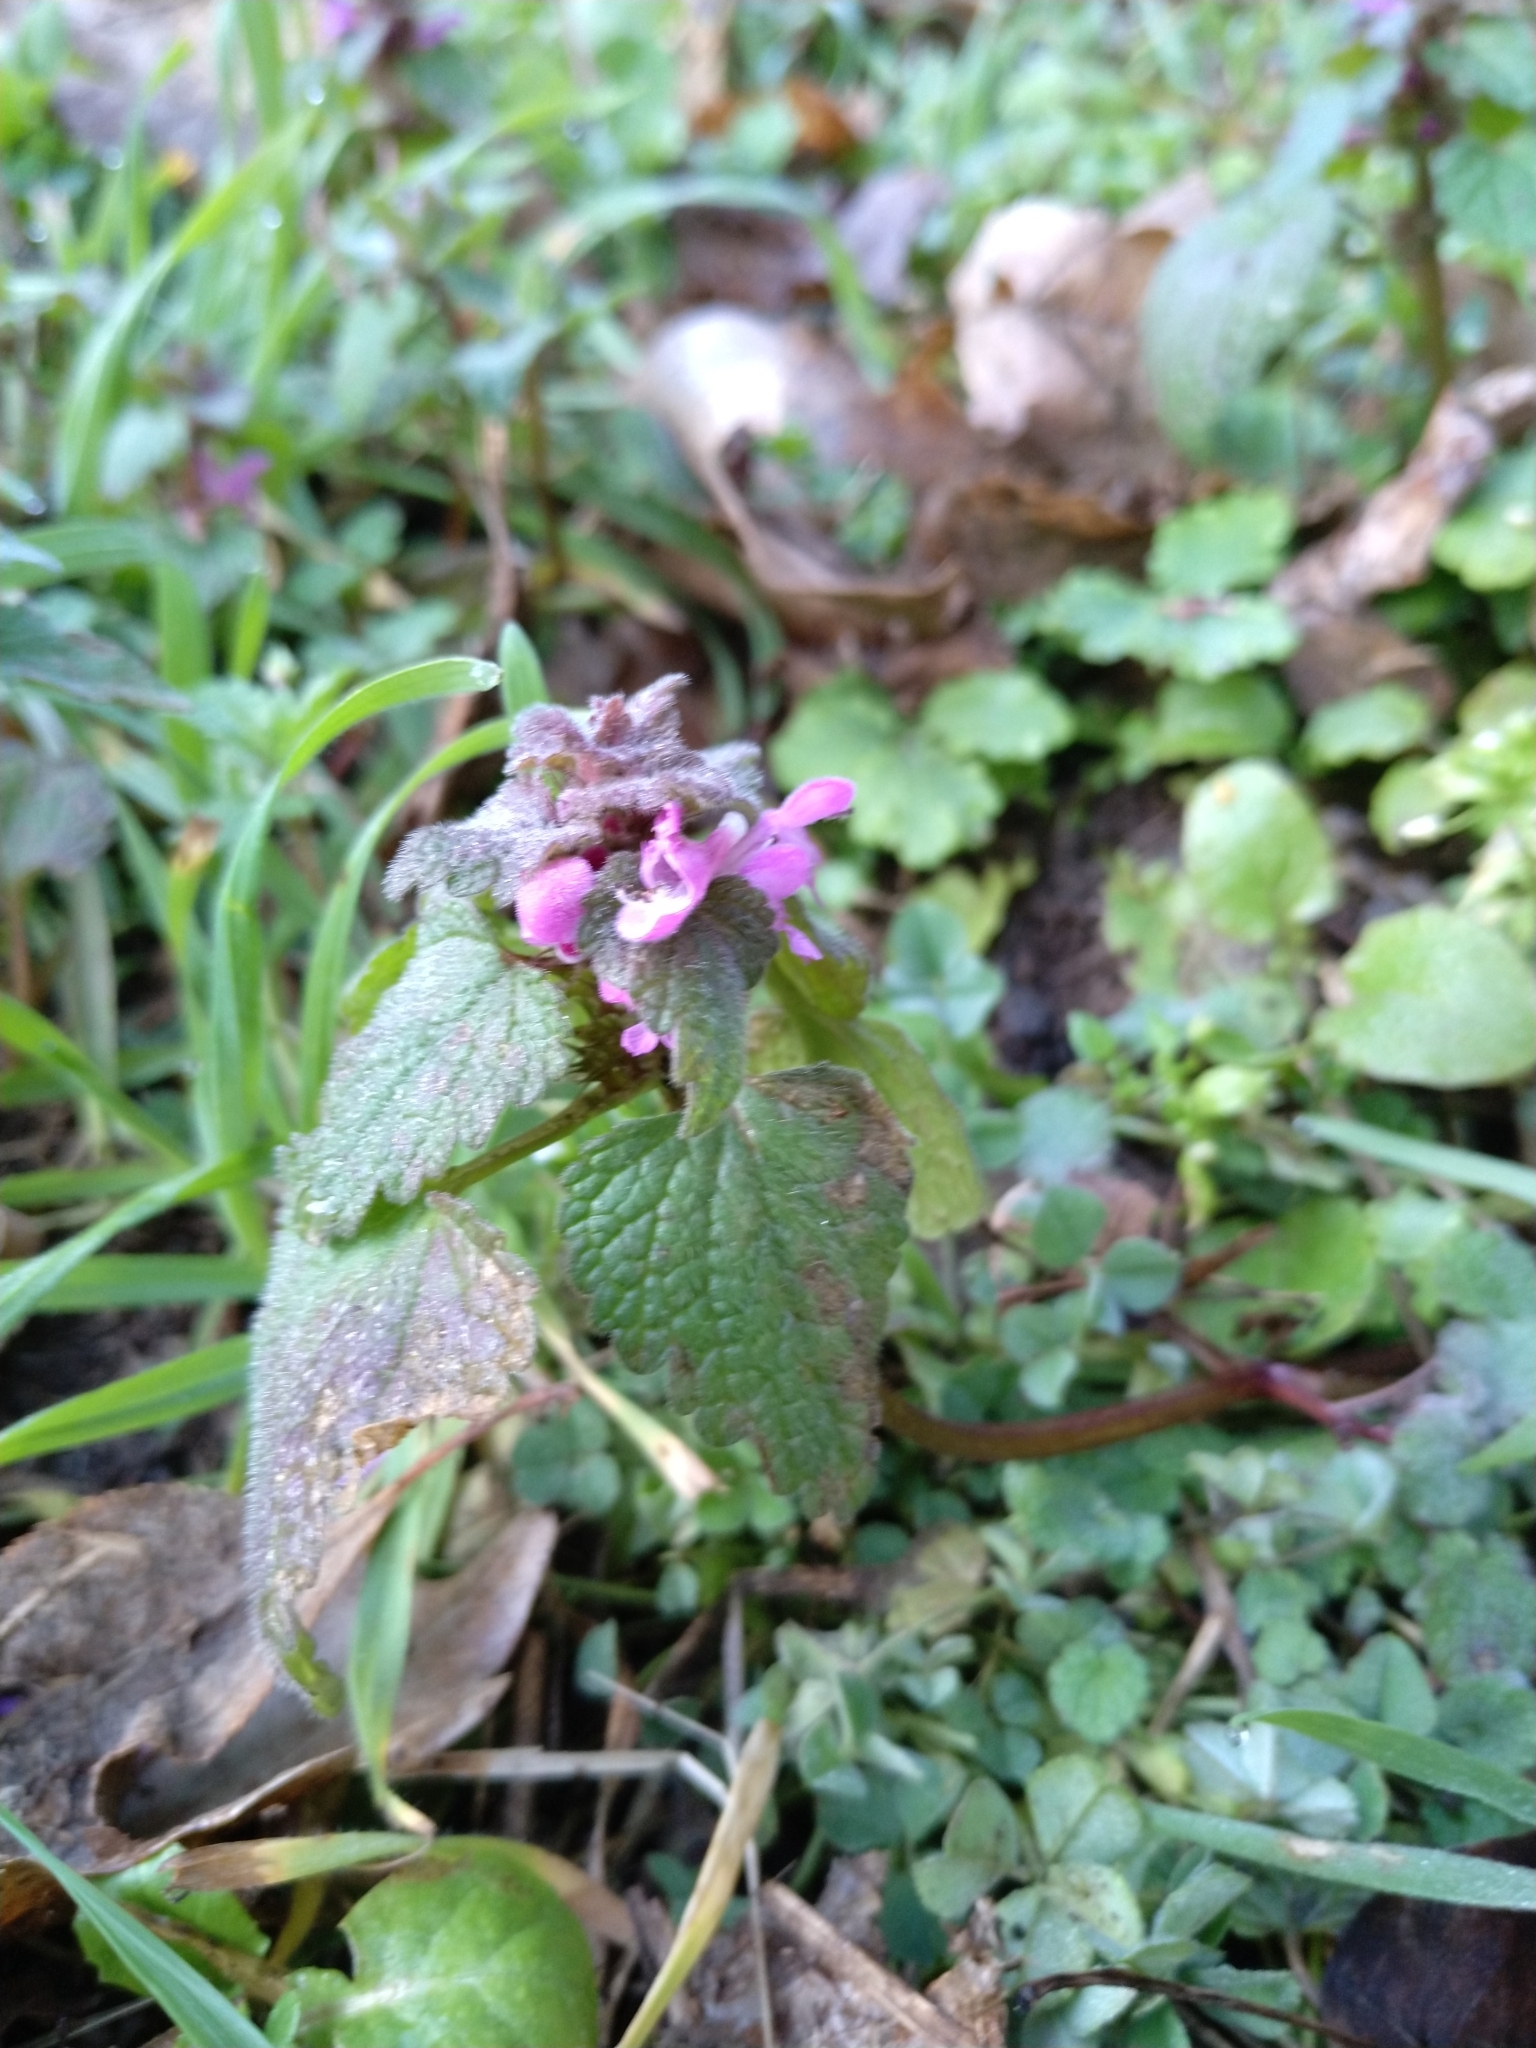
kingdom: Plantae
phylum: Tracheophyta
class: Magnoliopsida
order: Lamiales
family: Lamiaceae
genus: Lamium
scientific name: Lamium purpureum
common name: Red dead-nettle
